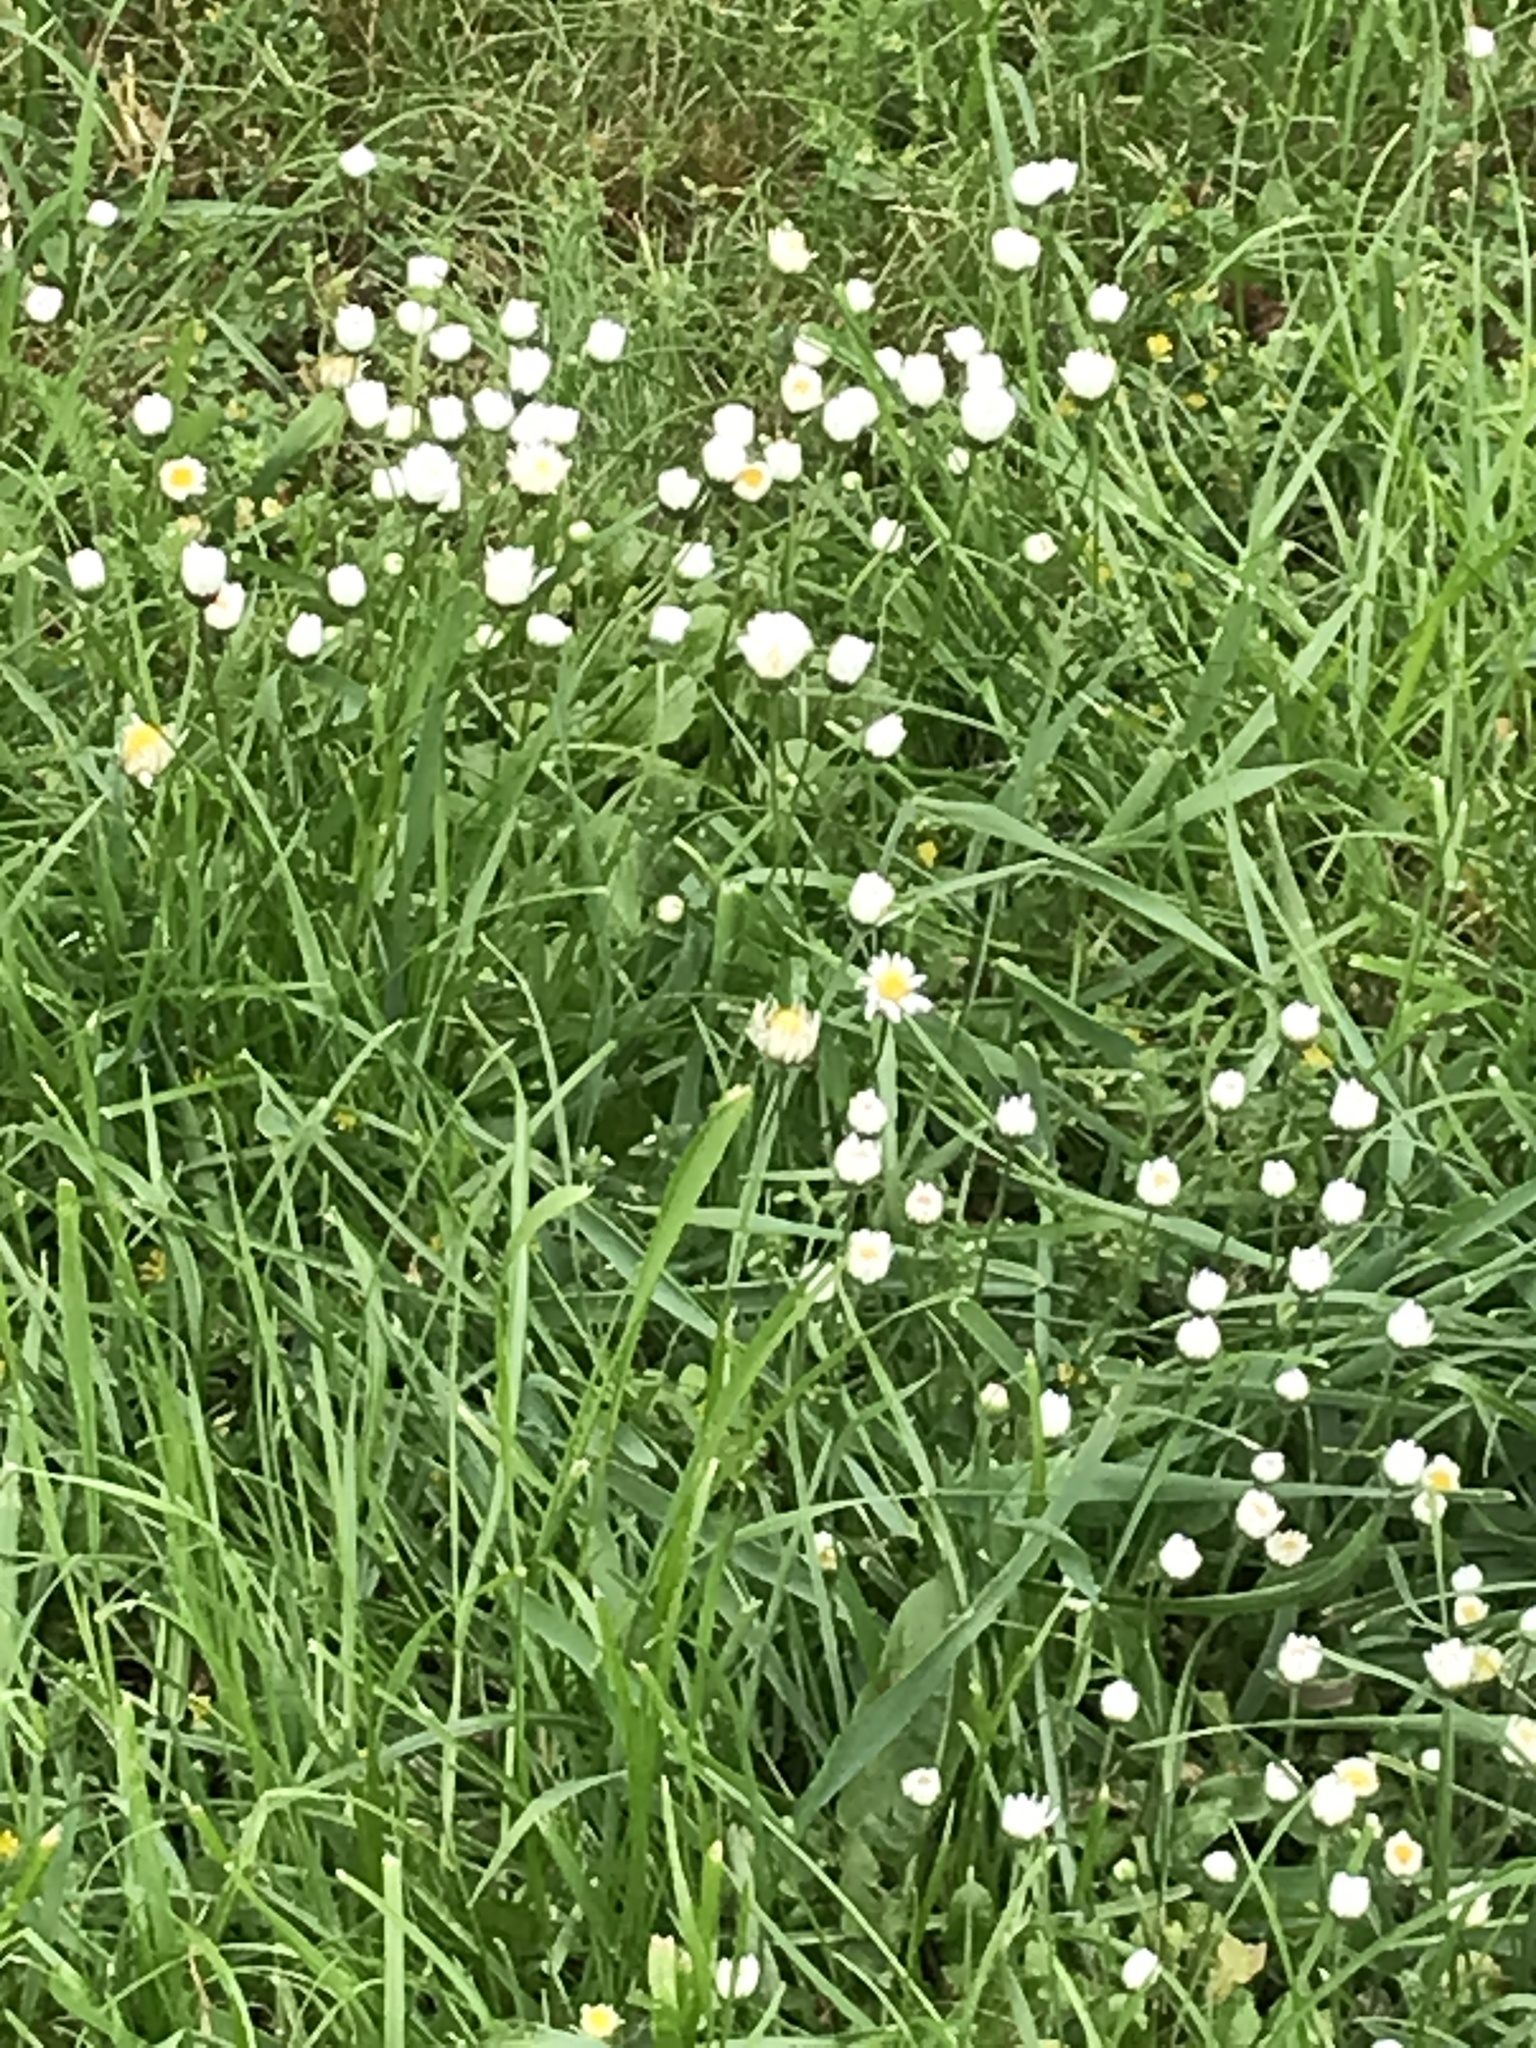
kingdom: Plantae
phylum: Tracheophyta
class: Magnoliopsida
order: Asterales
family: Asteraceae
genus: Bellis
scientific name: Bellis perennis
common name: Lawndaisy
